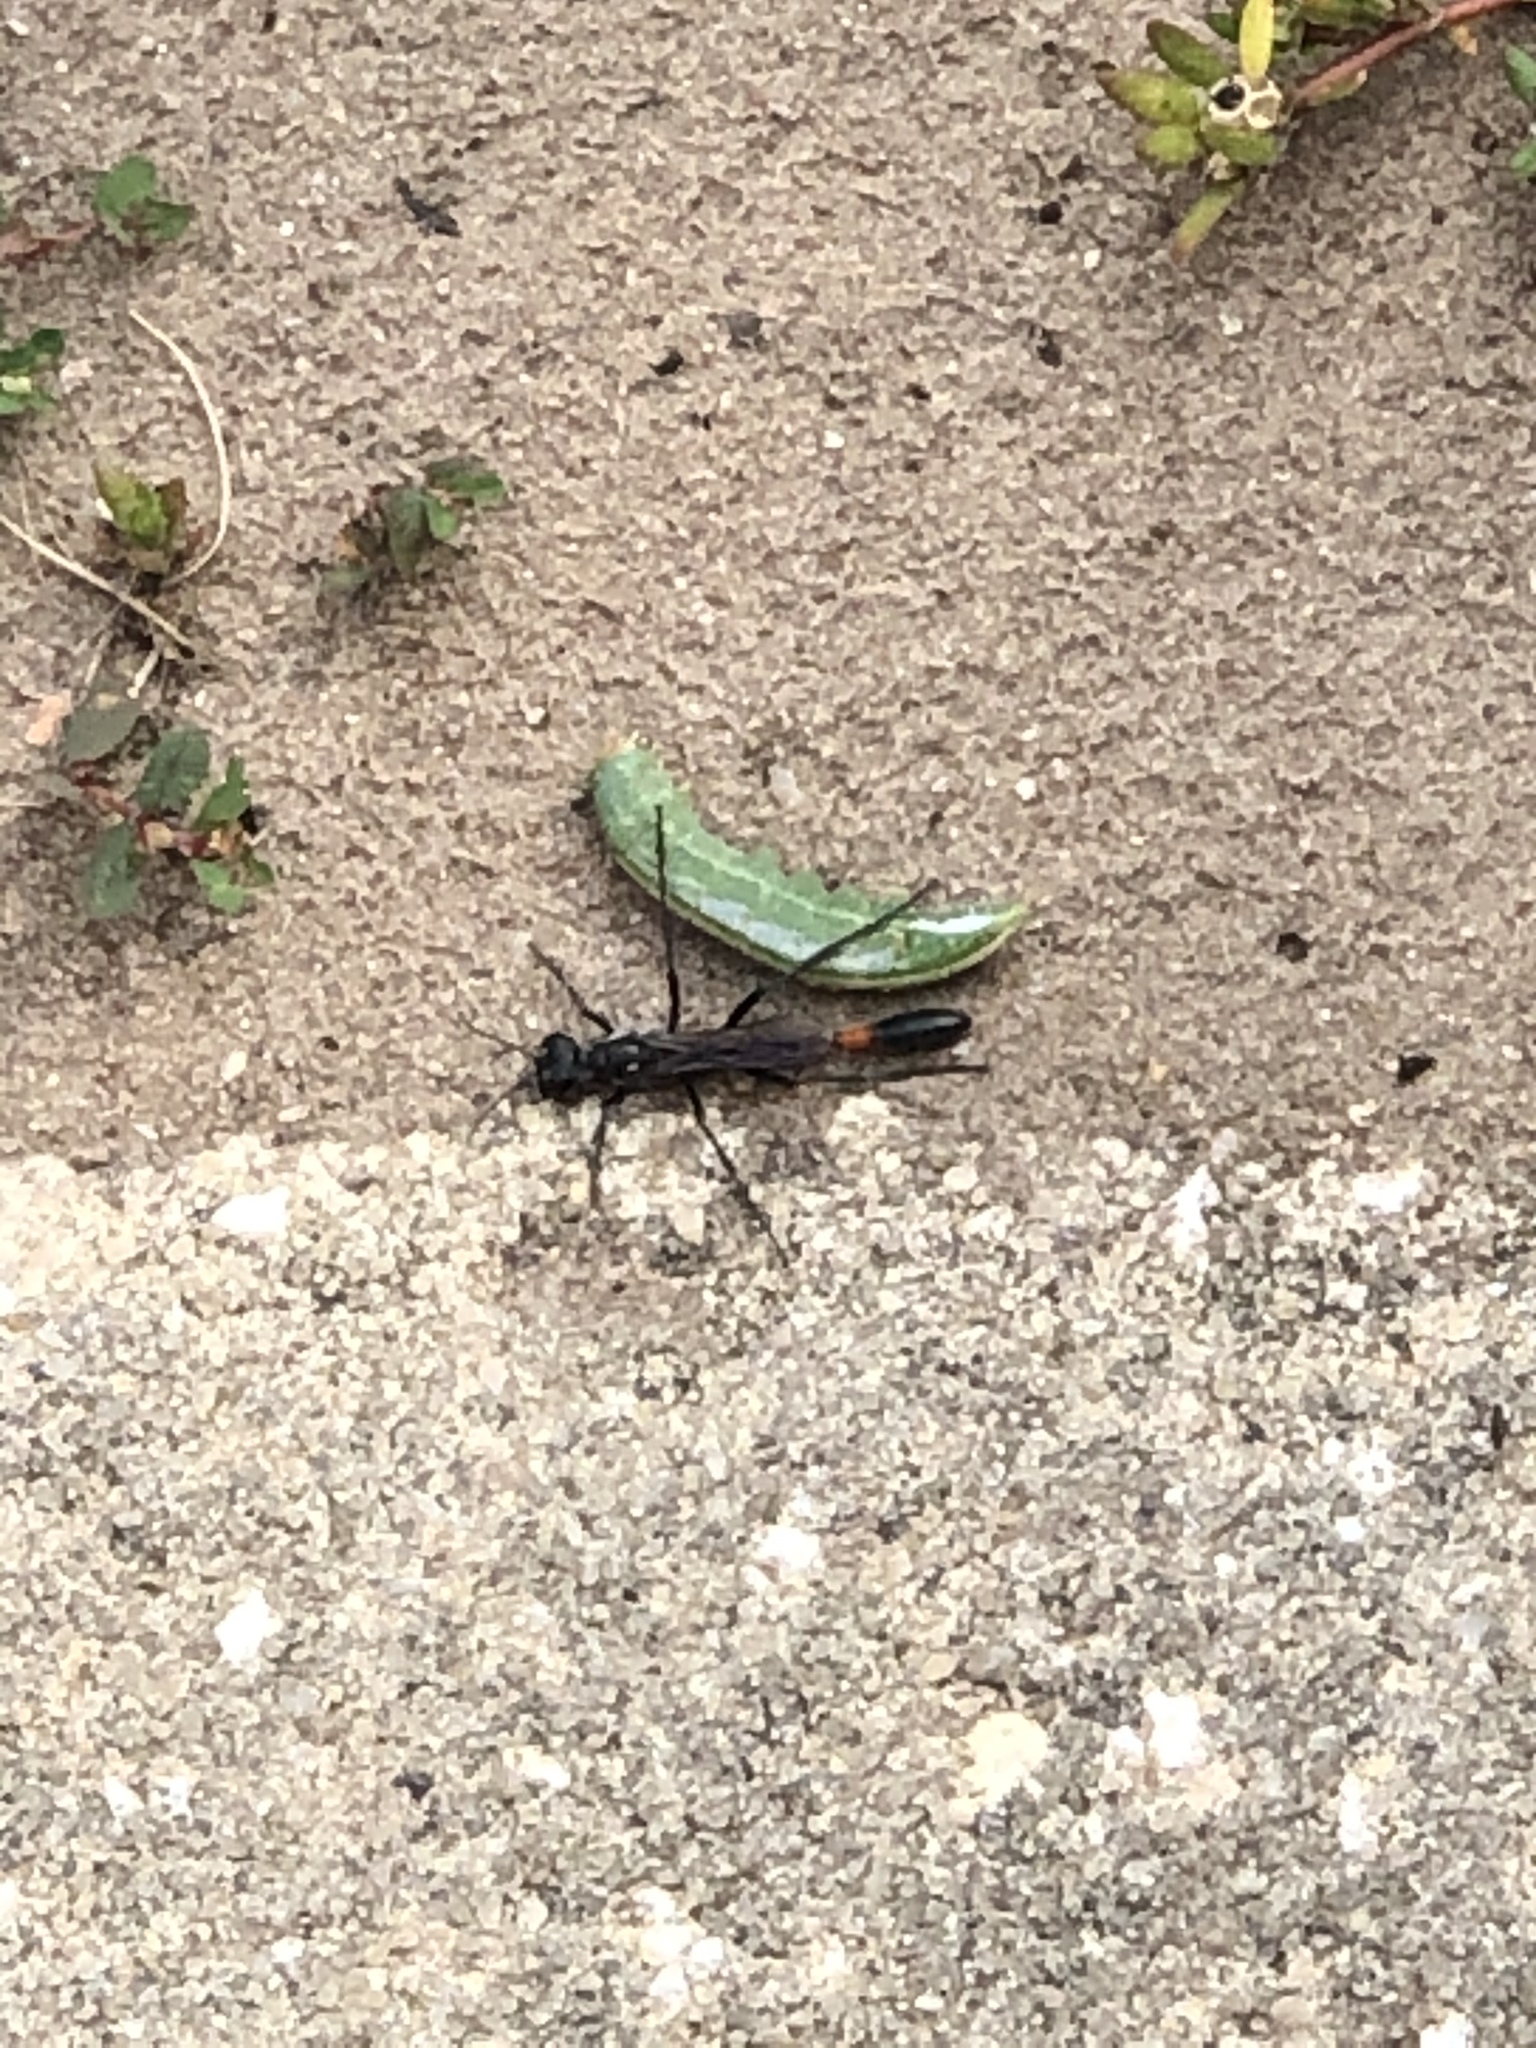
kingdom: Animalia
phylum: Arthropoda
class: Insecta
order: Lepidoptera
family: Notodontidae
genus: Heterocampa
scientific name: Heterocampa astarte
